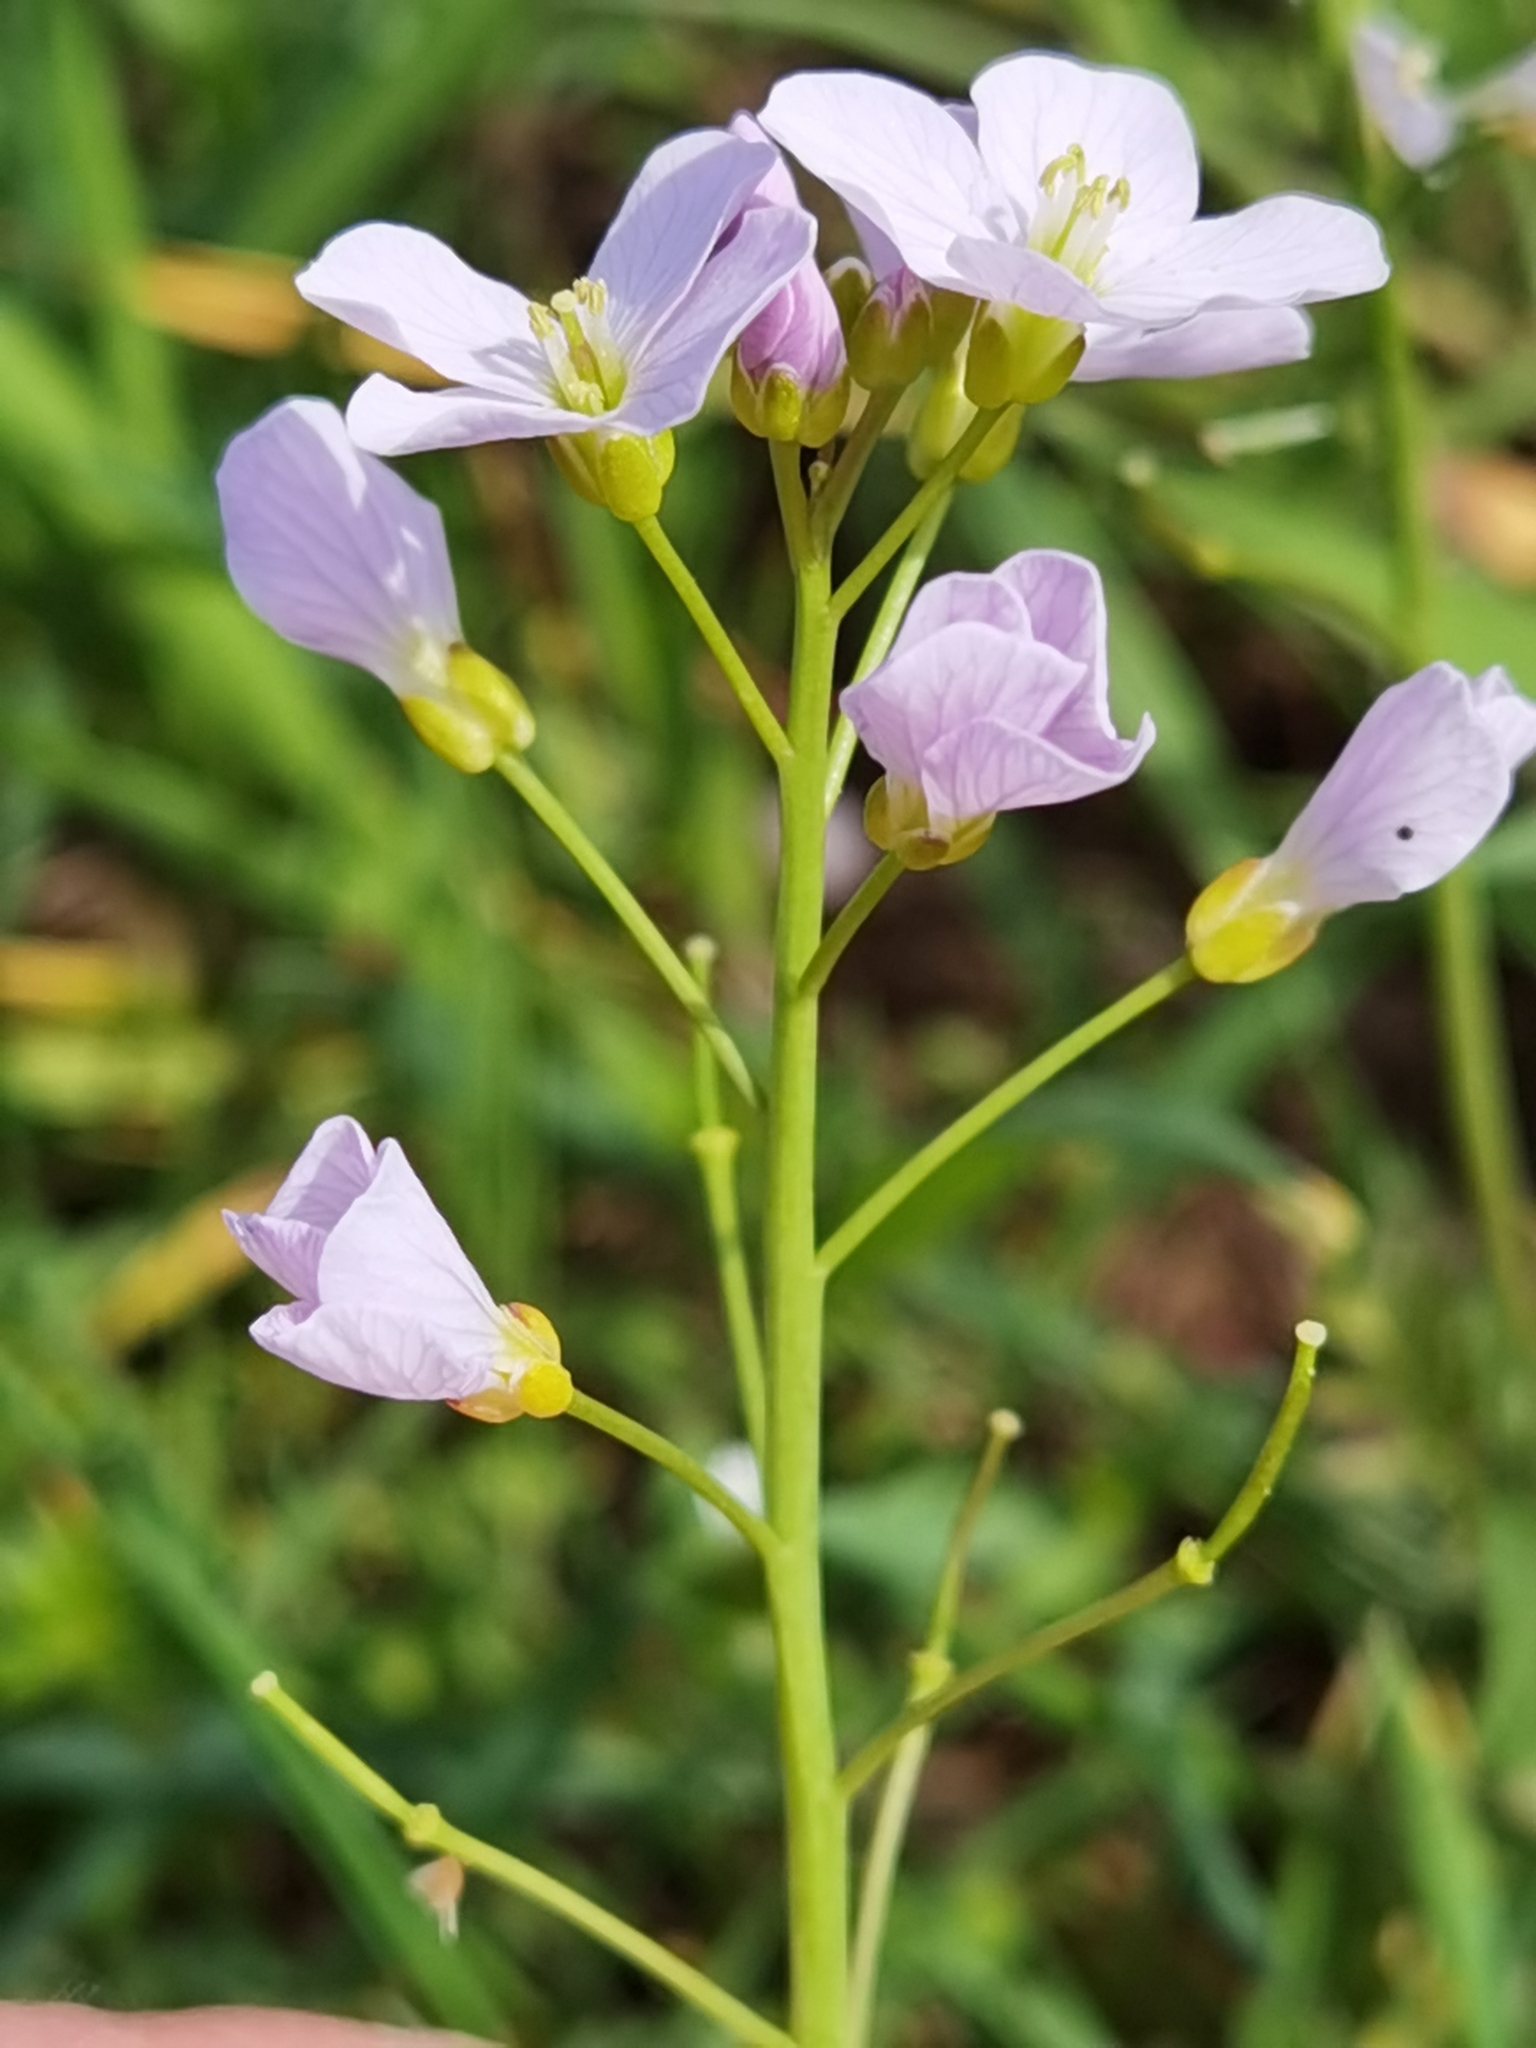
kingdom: Plantae
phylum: Tracheophyta
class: Magnoliopsida
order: Brassicales
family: Brassicaceae
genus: Cardamine
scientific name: Cardamine pratensis
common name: Cuckoo flower
